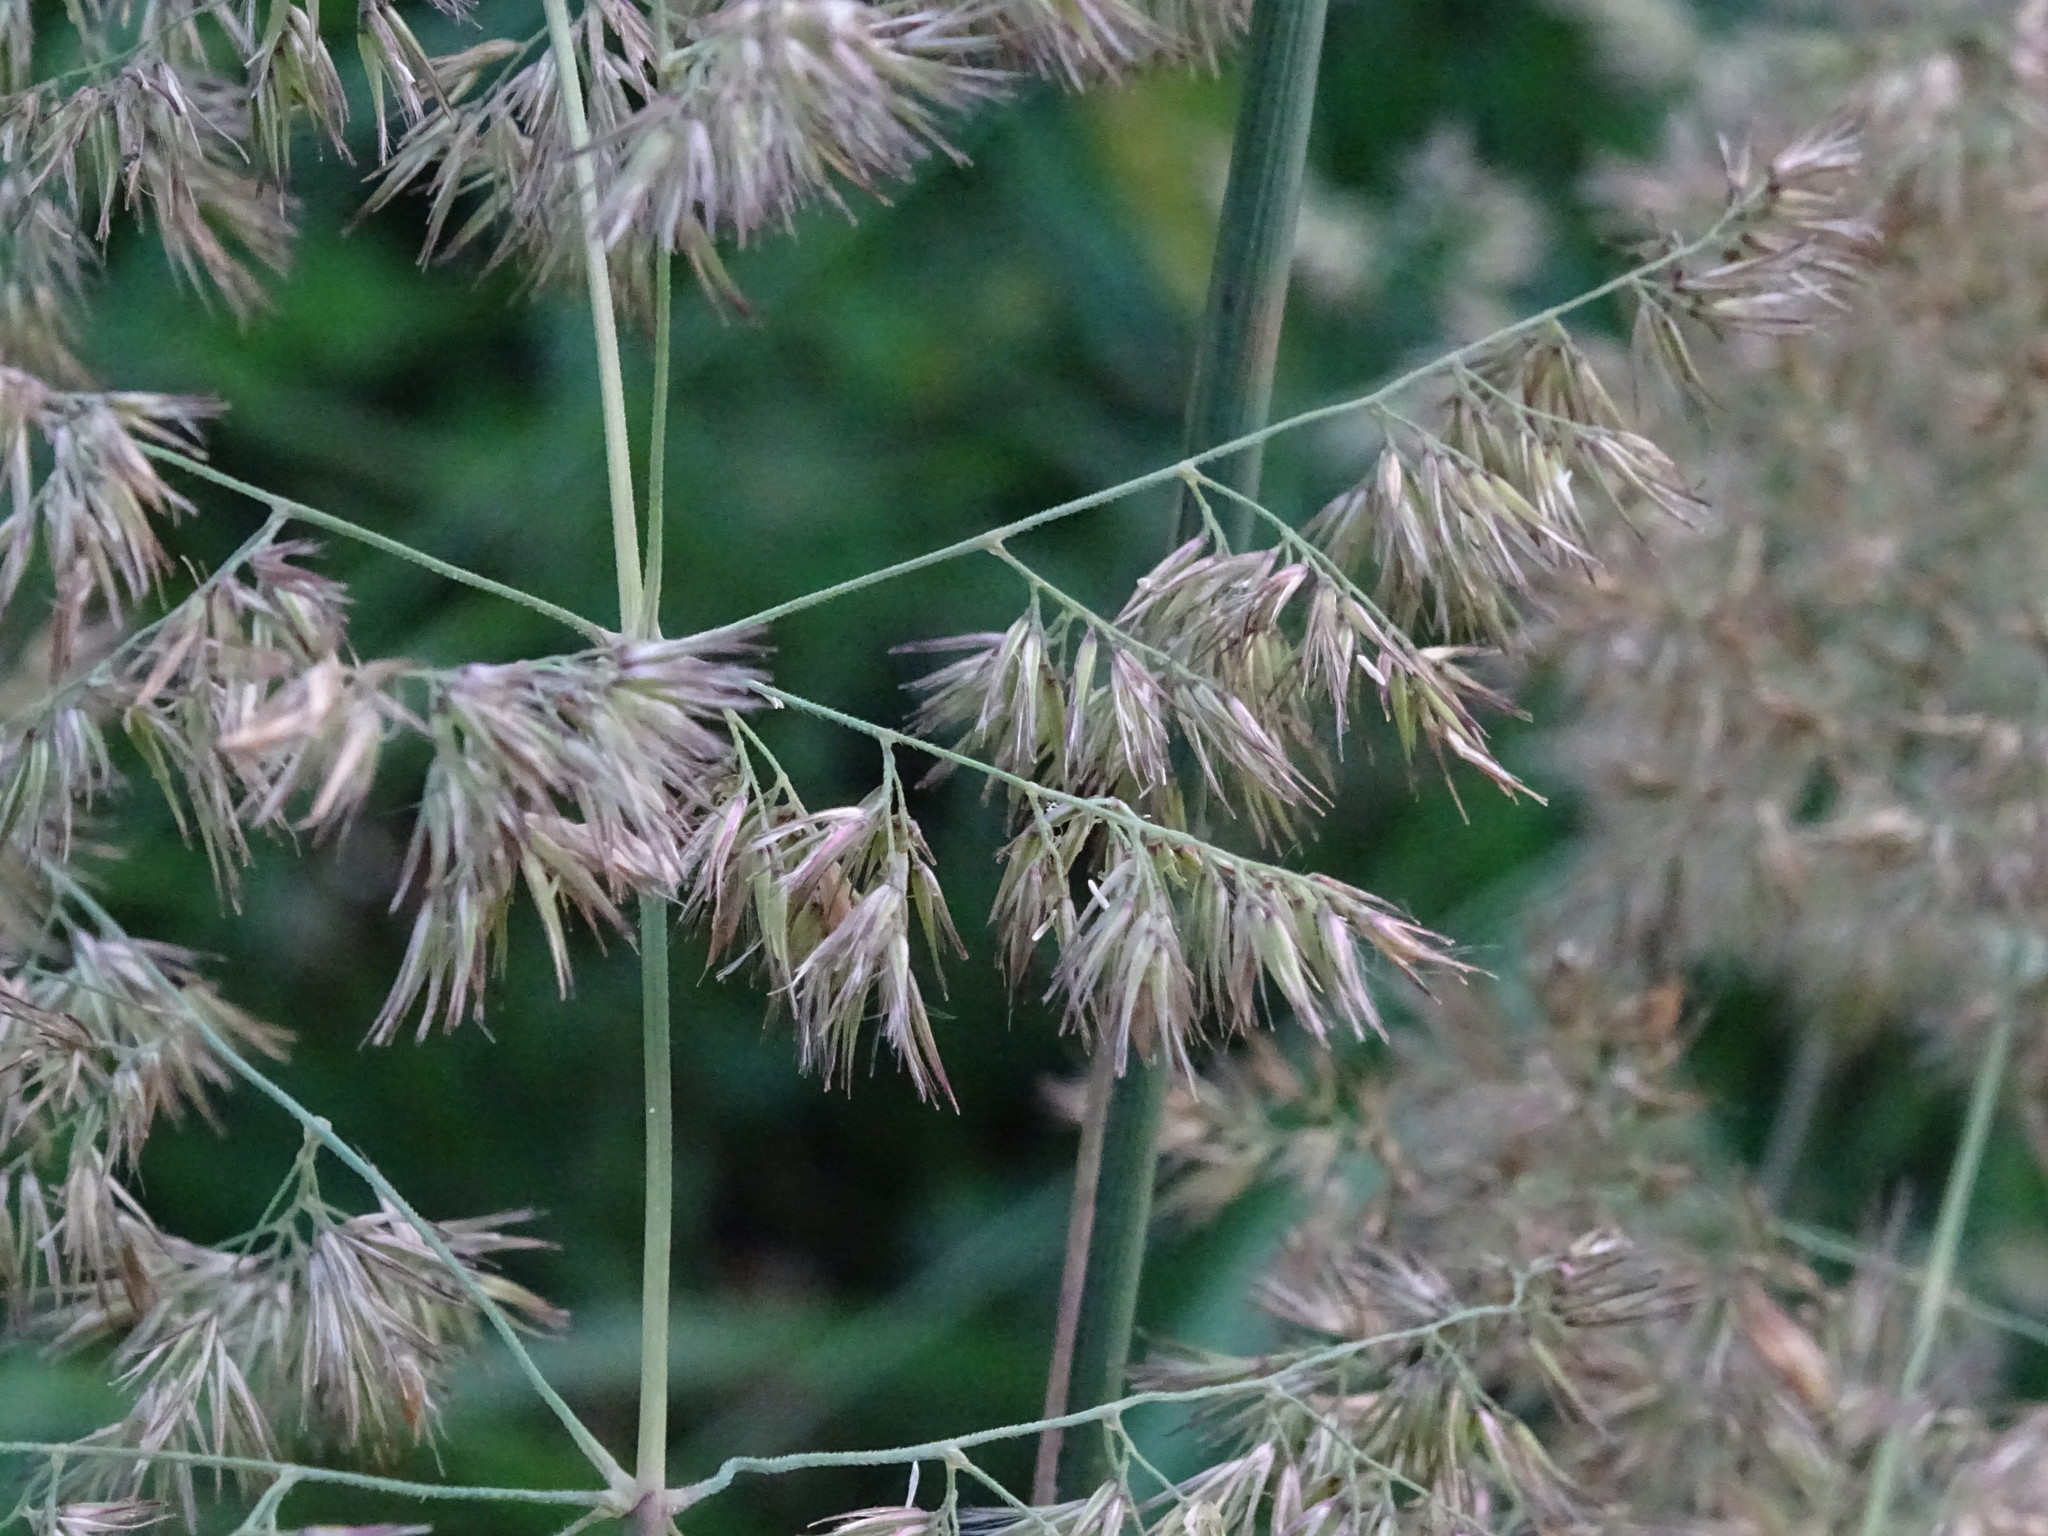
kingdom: Plantae
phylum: Tracheophyta
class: Liliopsida
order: Poales
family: Poaceae
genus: Dactylis
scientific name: Dactylis glomerata
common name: Orchardgrass
